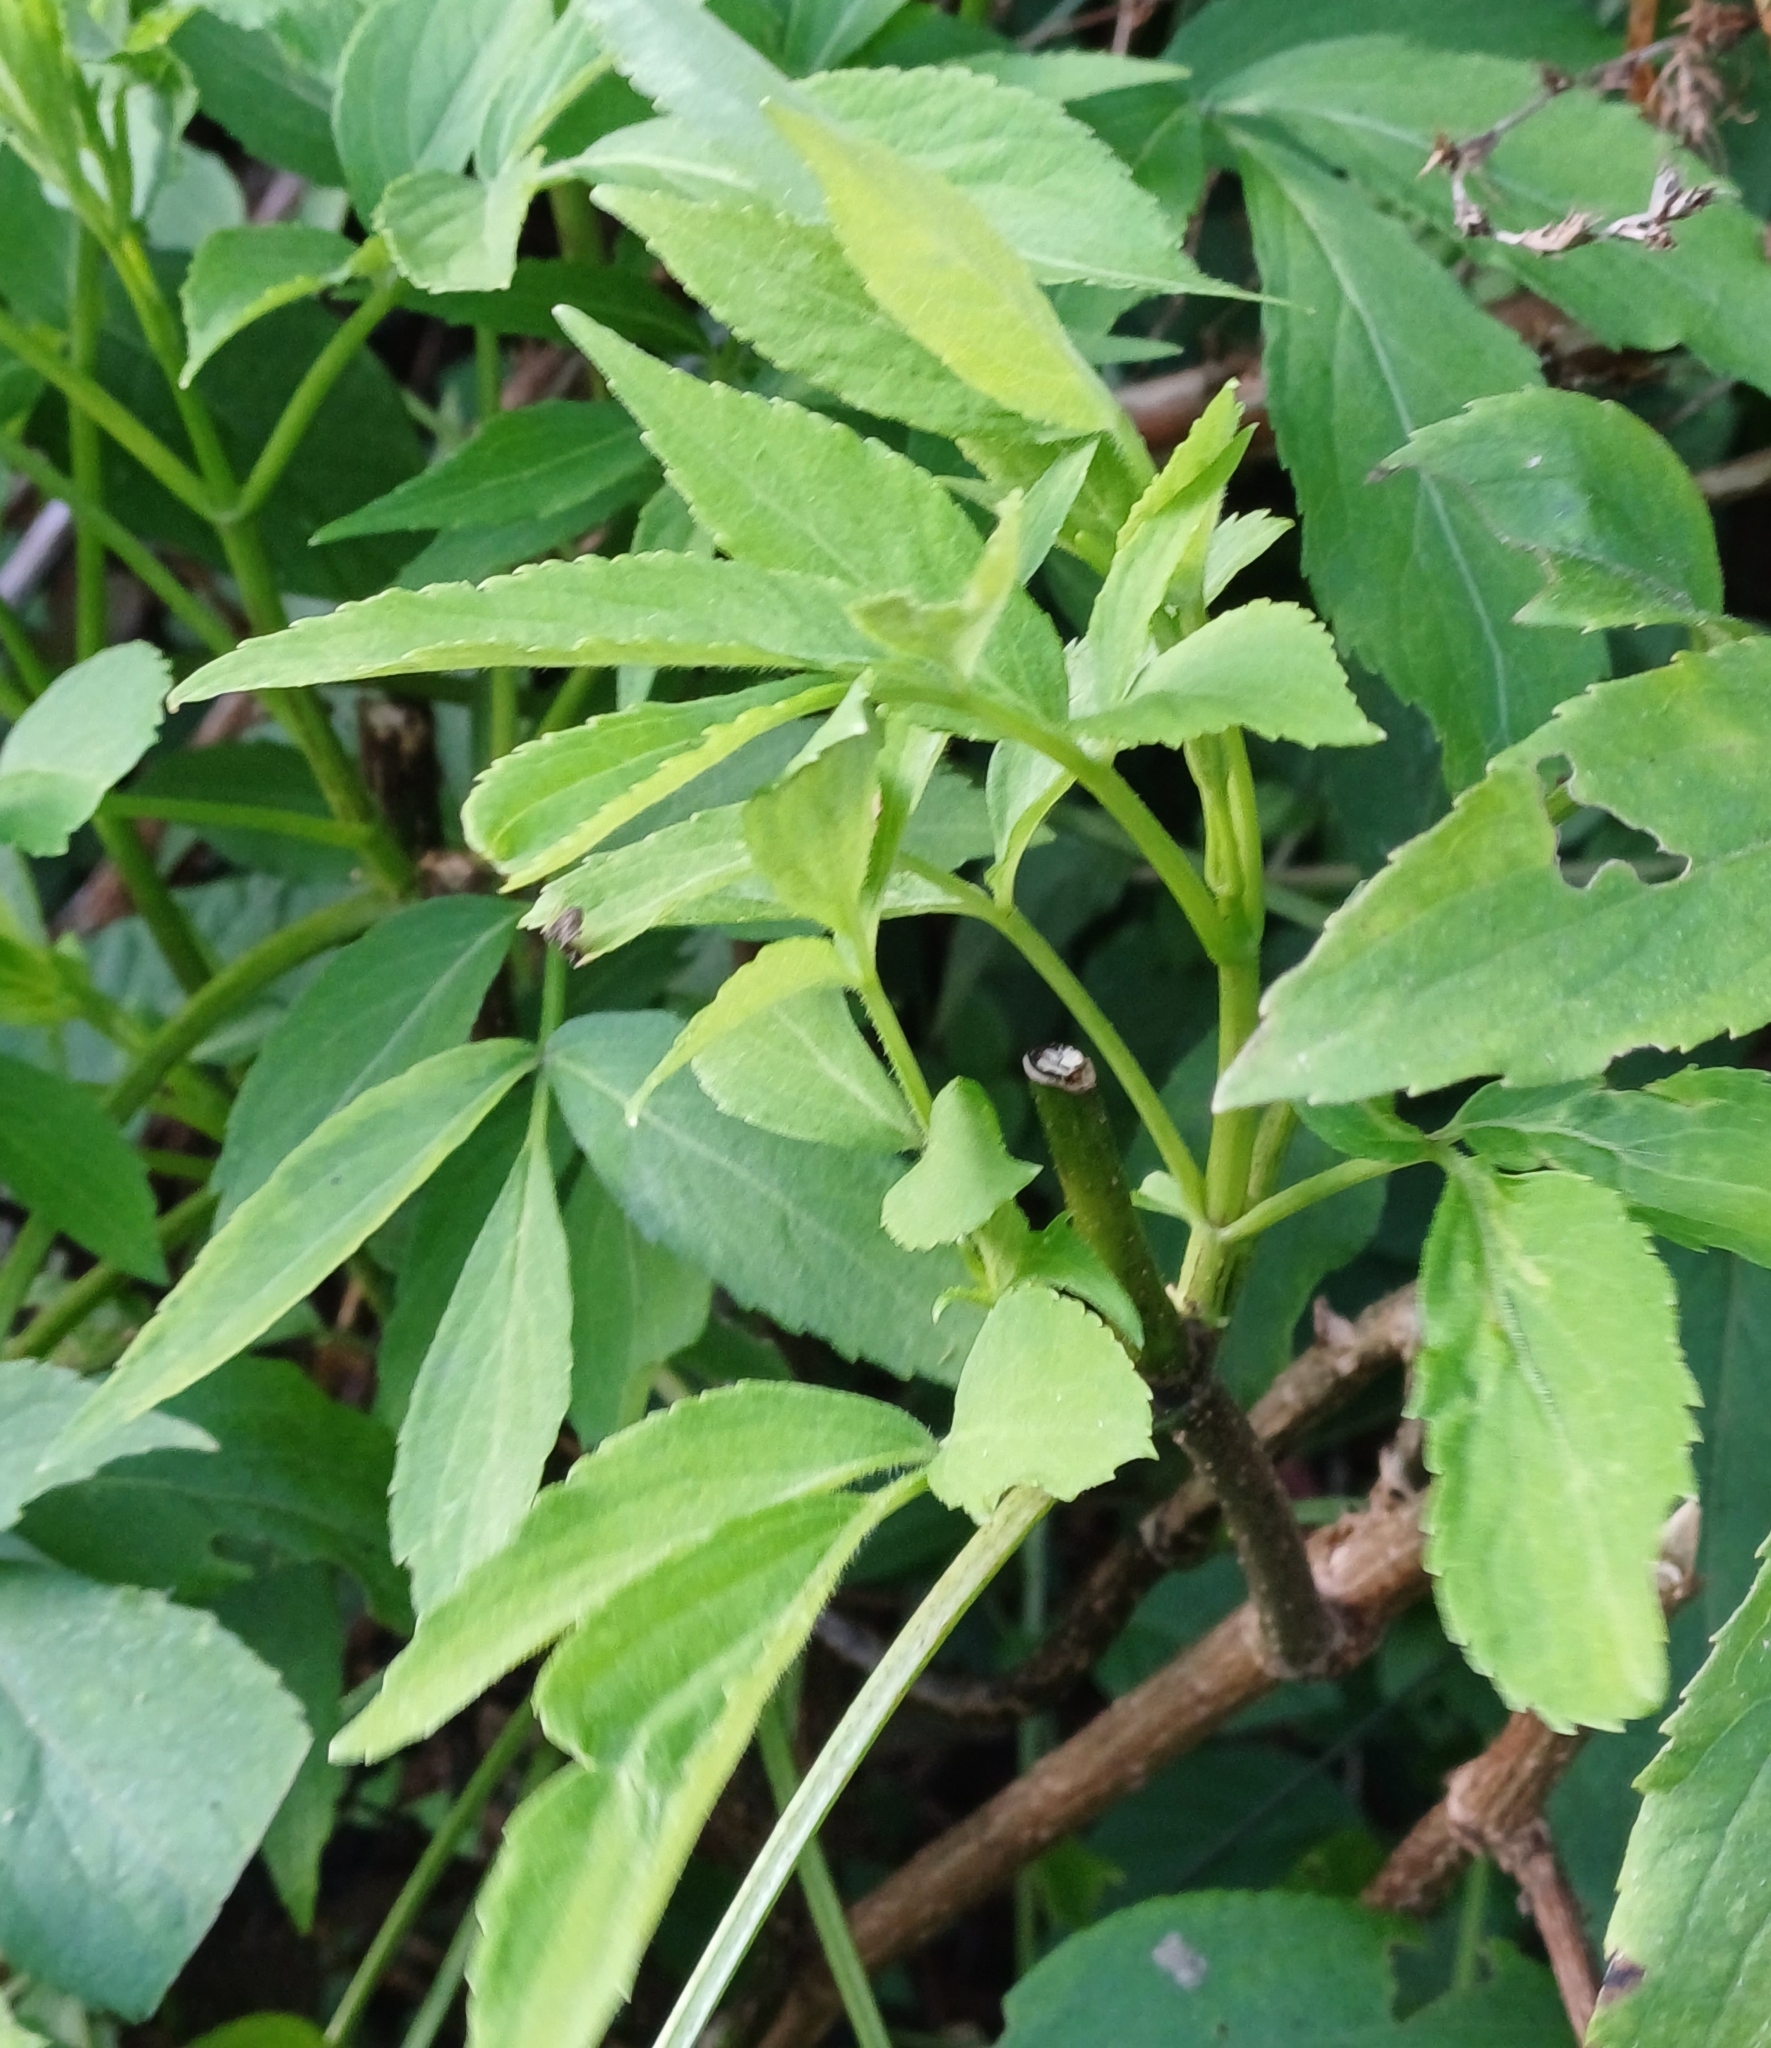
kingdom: Plantae
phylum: Tracheophyta
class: Magnoliopsida
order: Dipsacales
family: Viburnaceae
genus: Sambucus
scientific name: Sambucus nigra
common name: Elder
